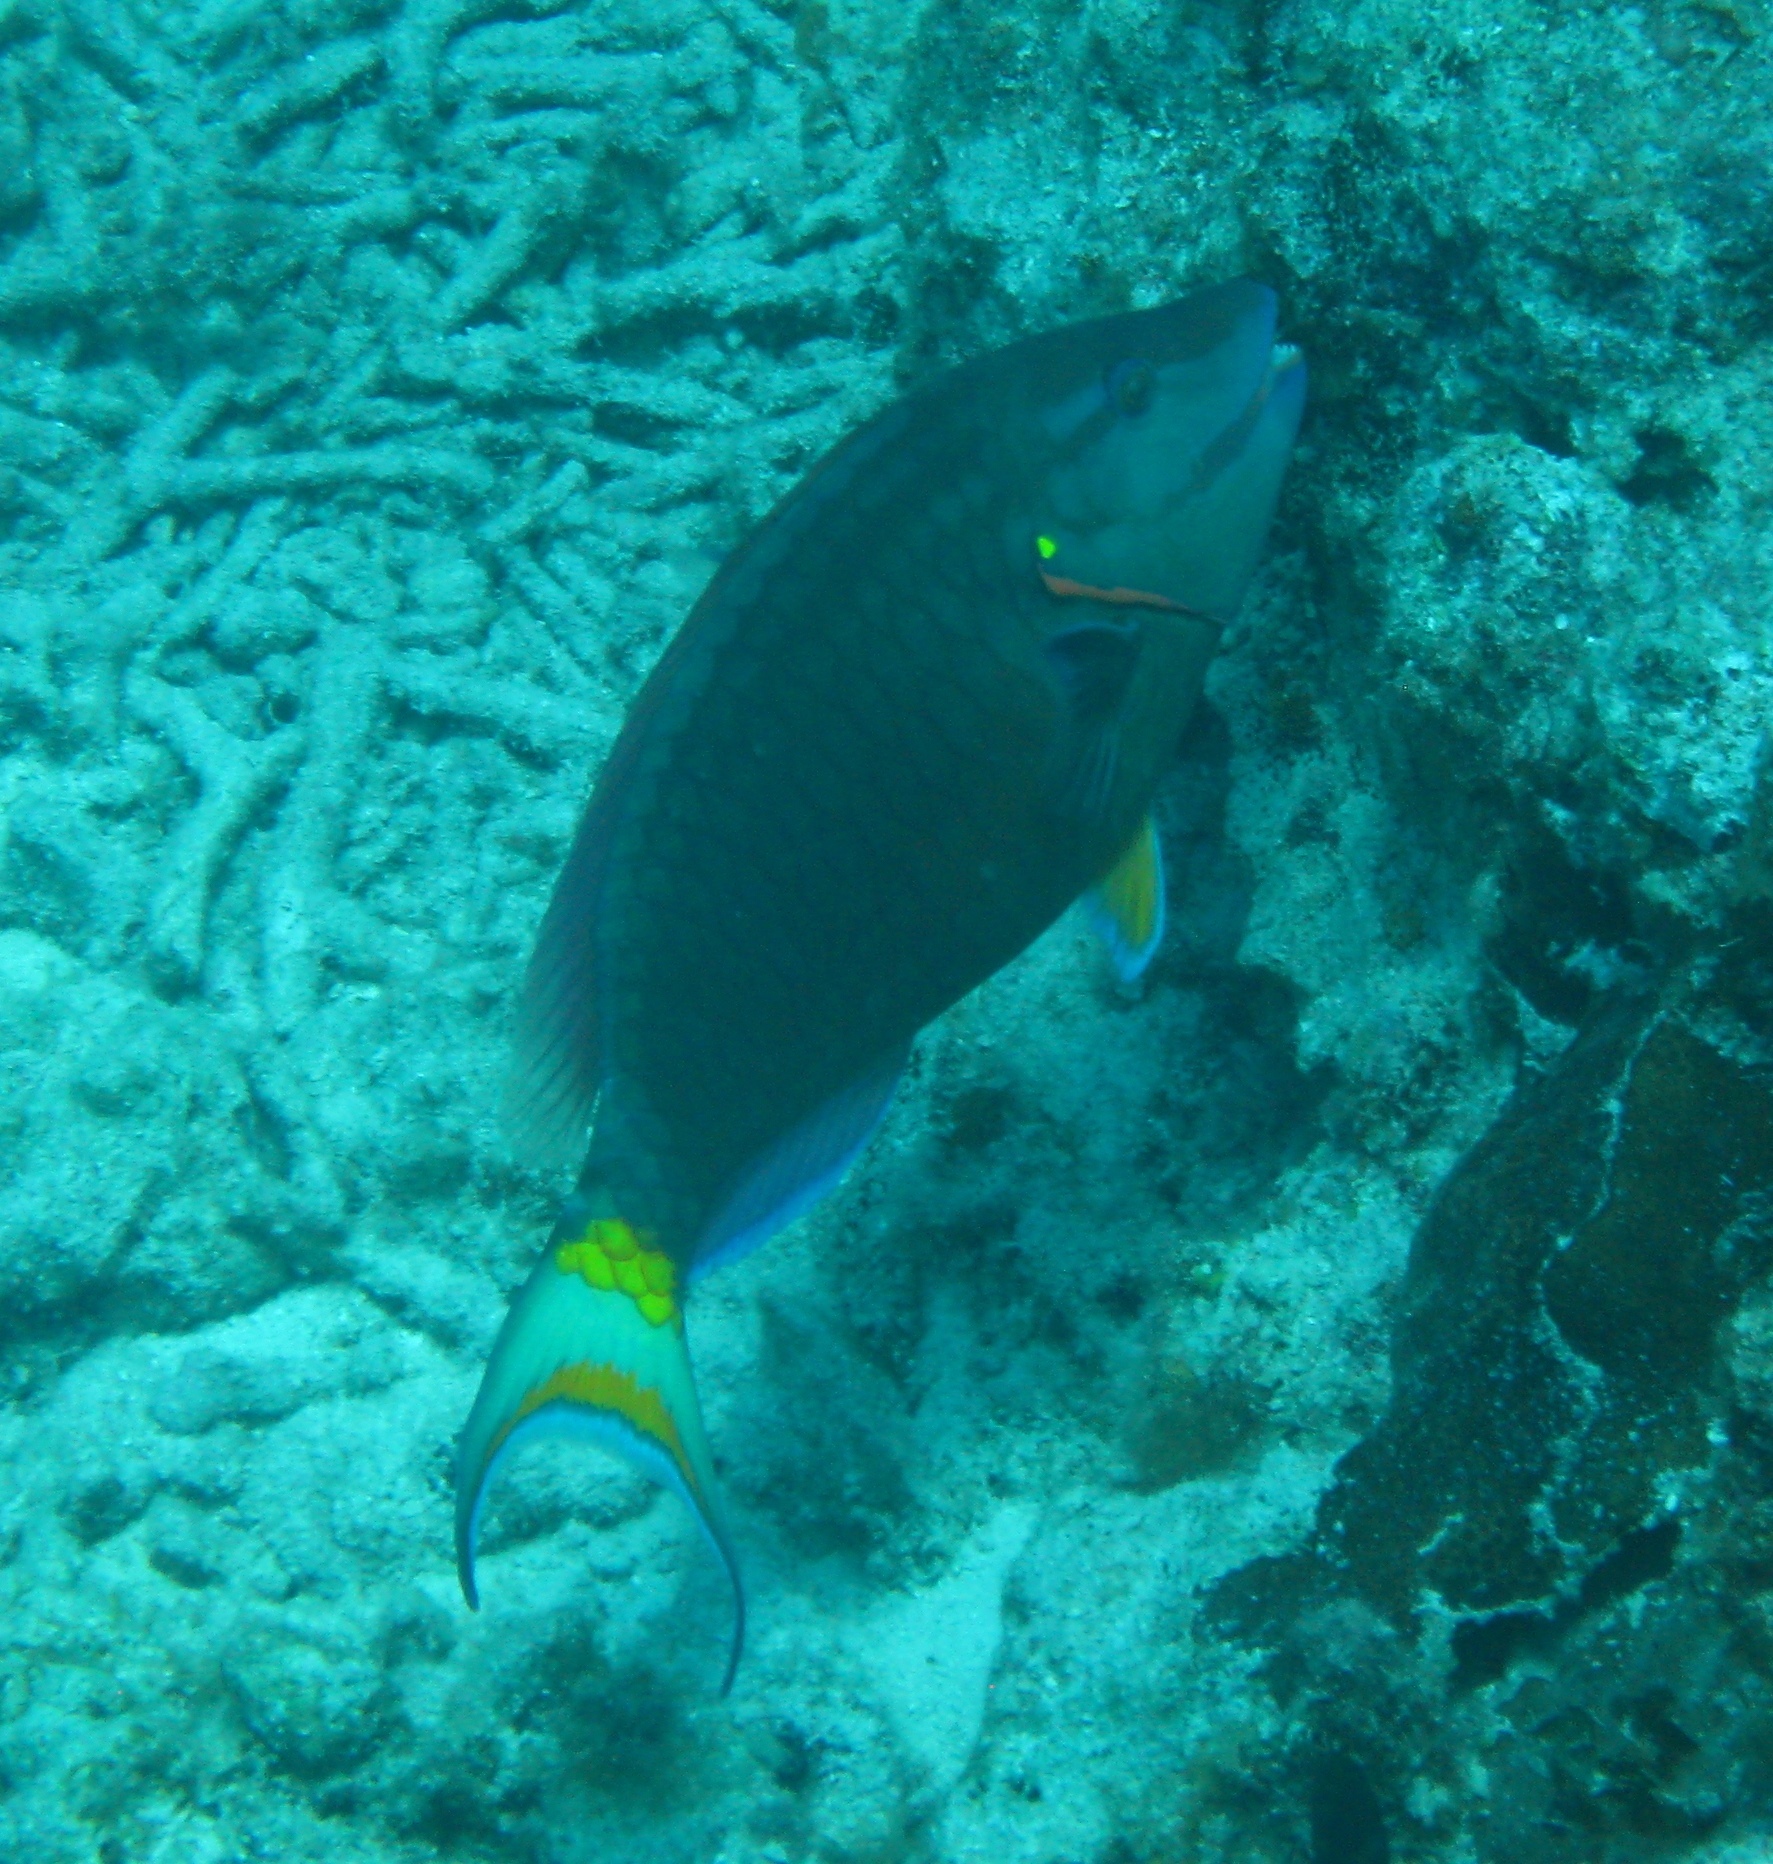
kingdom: Animalia
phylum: Chordata
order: Perciformes
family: Scaridae
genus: Sparisoma
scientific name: Sparisoma viride
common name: Stoplight parrotfish
